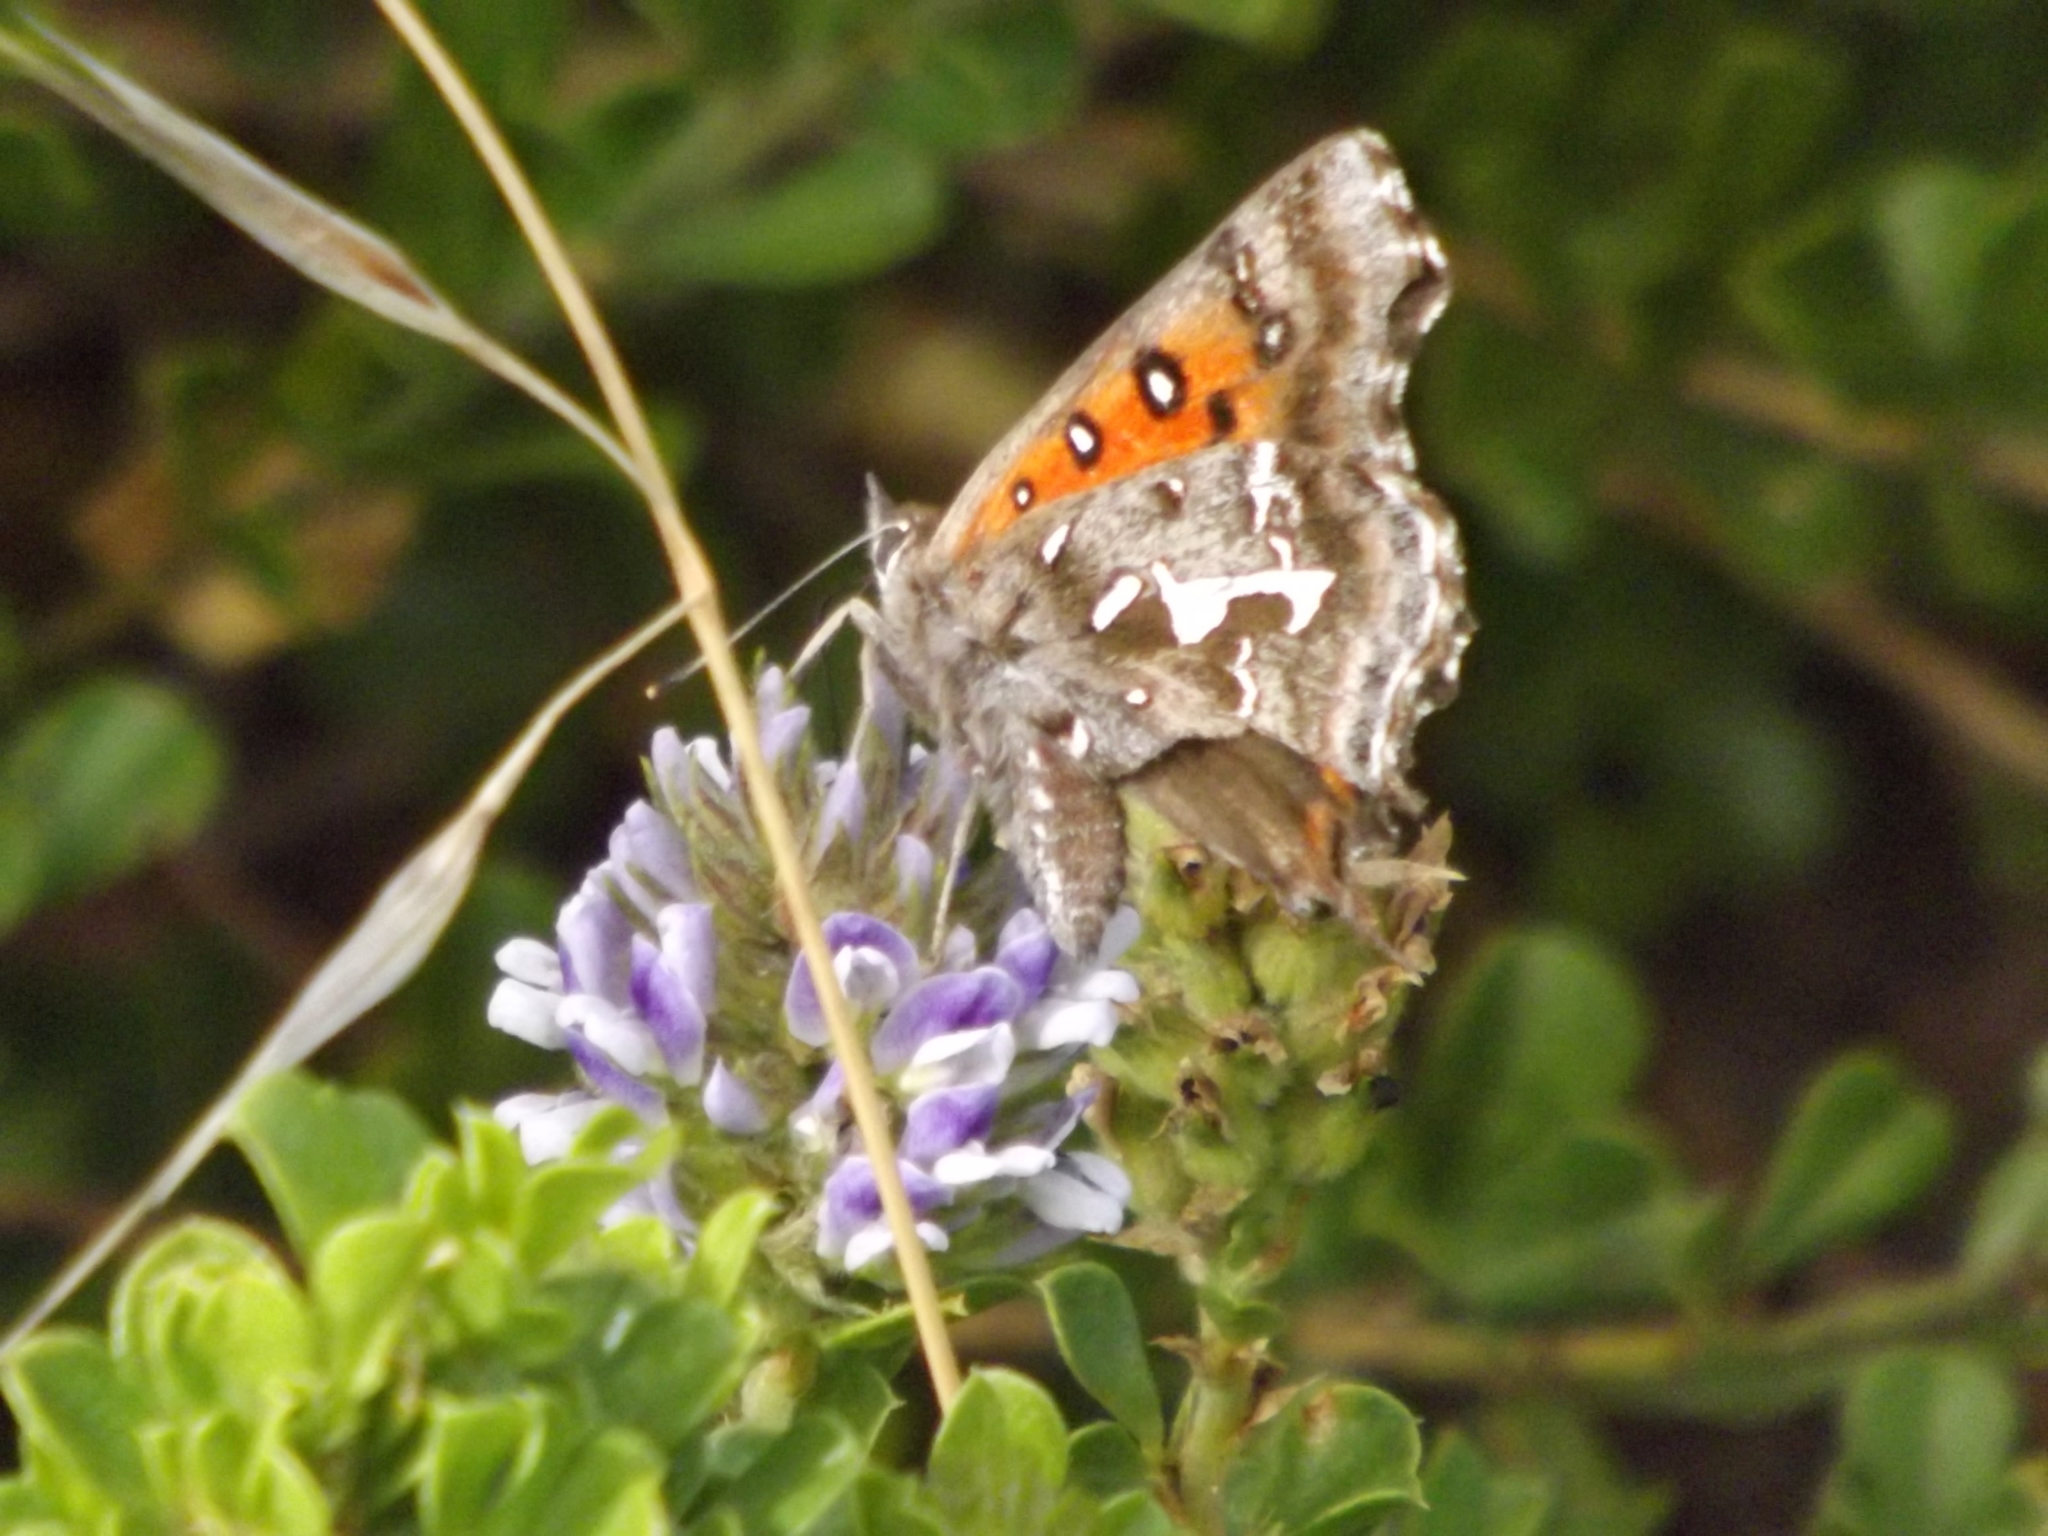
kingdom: Animalia
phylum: Arthropoda
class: Insecta
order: Lepidoptera
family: Lycaenidae
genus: Phasis
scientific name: Phasis thero
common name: Silver arrowhead
